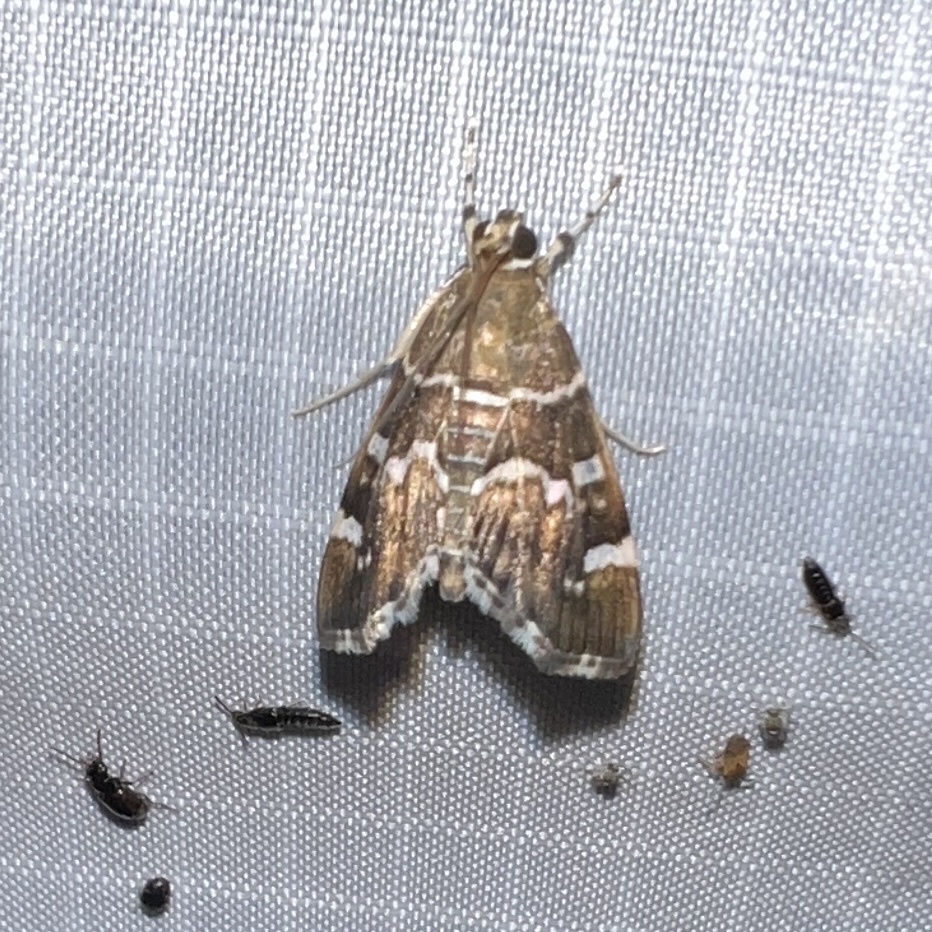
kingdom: Animalia
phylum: Arthropoda
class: Insecta
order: Lepidoptera
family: Crambidae
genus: Hymenia
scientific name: Hymenia perspectalis
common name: Spotted beet webworm
